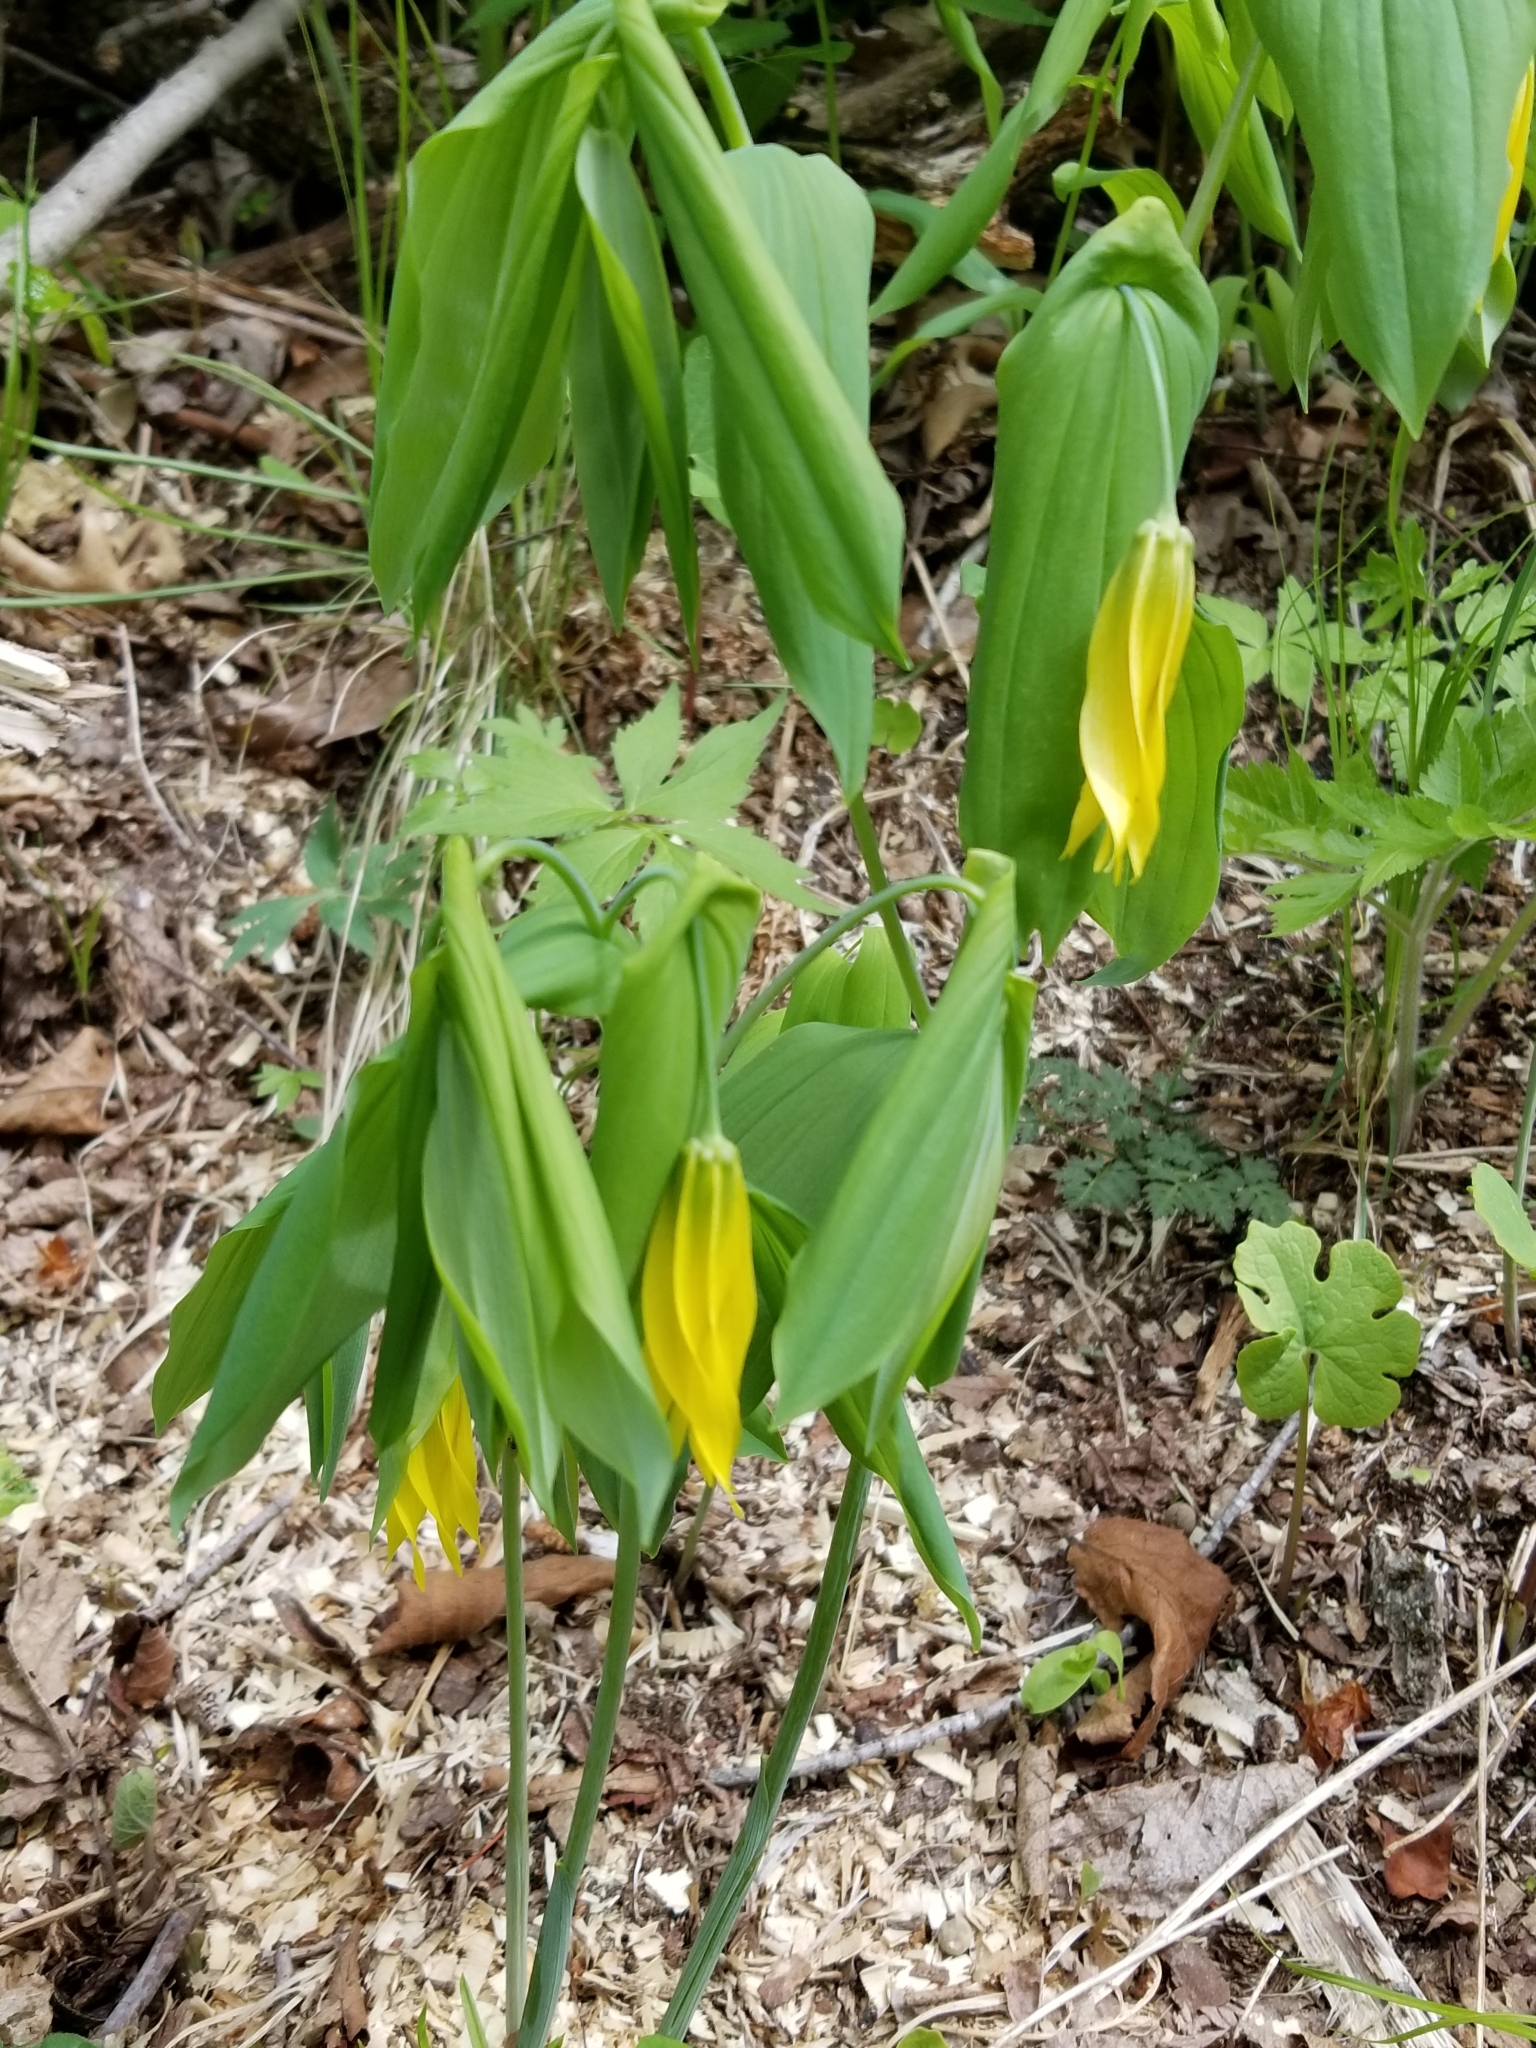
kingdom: Plantae
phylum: Tracheophyta
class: Liliopsida
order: Liliales
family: Colchicaceae
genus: Uvularia
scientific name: Uvularia grandiflora
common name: Bellwort
